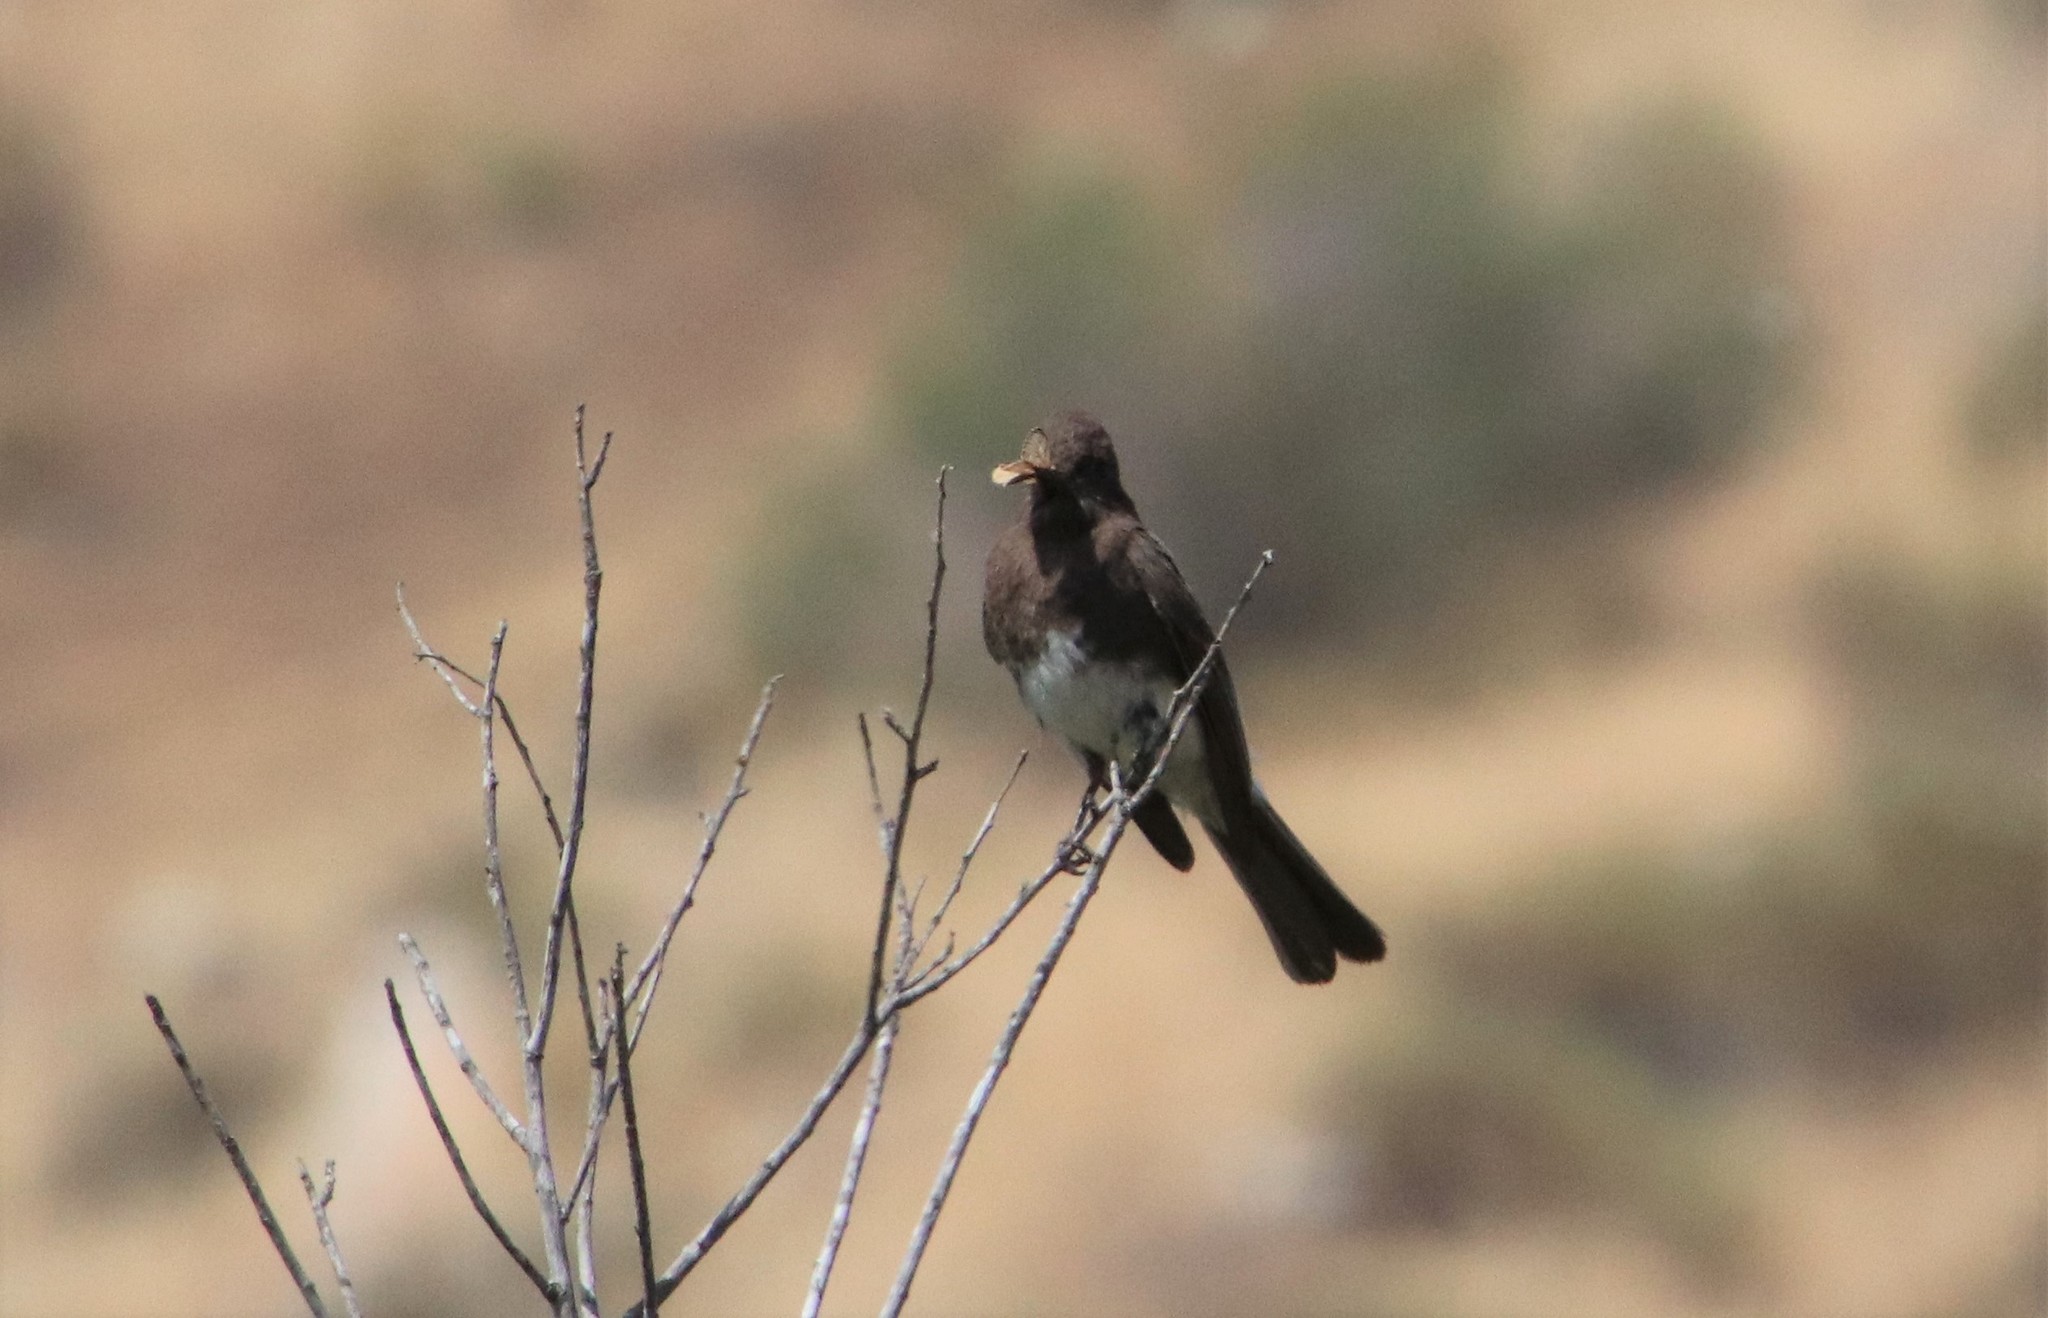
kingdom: Animalia
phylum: Chordata
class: Aves
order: Passeriformes
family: Tyrannidae
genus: Sayornis
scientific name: Sayornis nigricans
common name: Black phoebe
